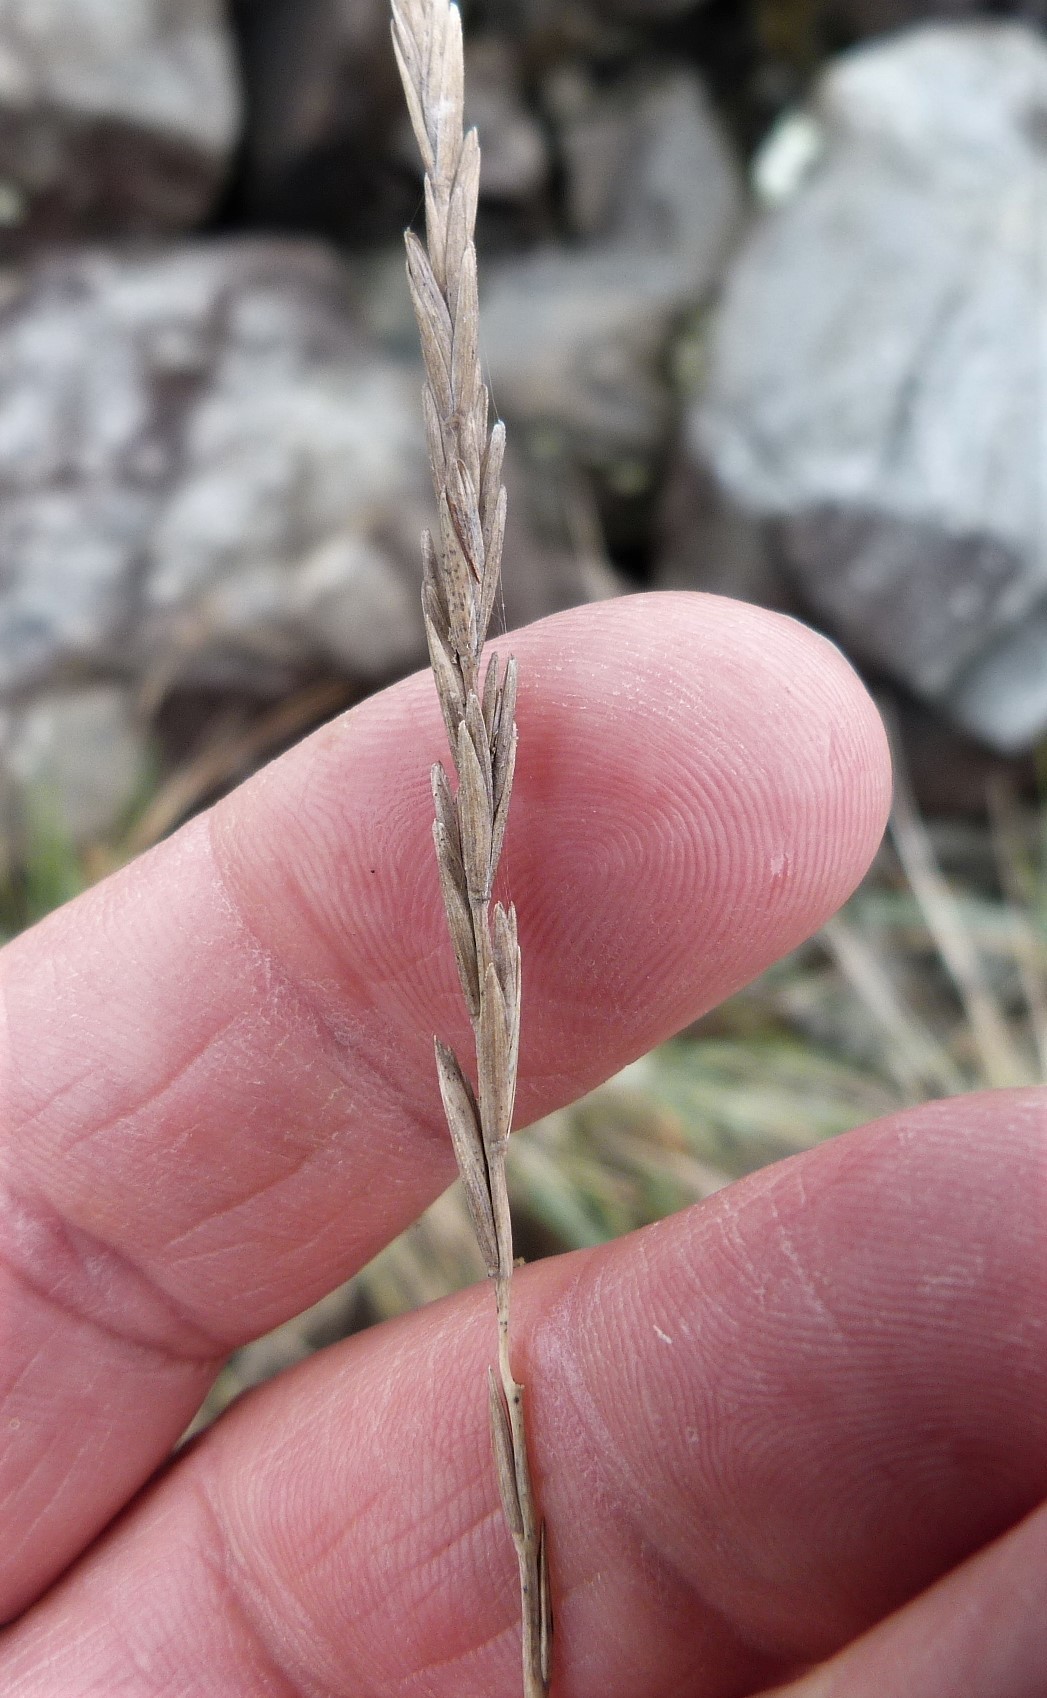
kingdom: Plantae
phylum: Tracheophyta
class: Liliopsida
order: Poales
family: Poaceae
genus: Elymus
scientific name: Elymus repens
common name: Quackgrass
